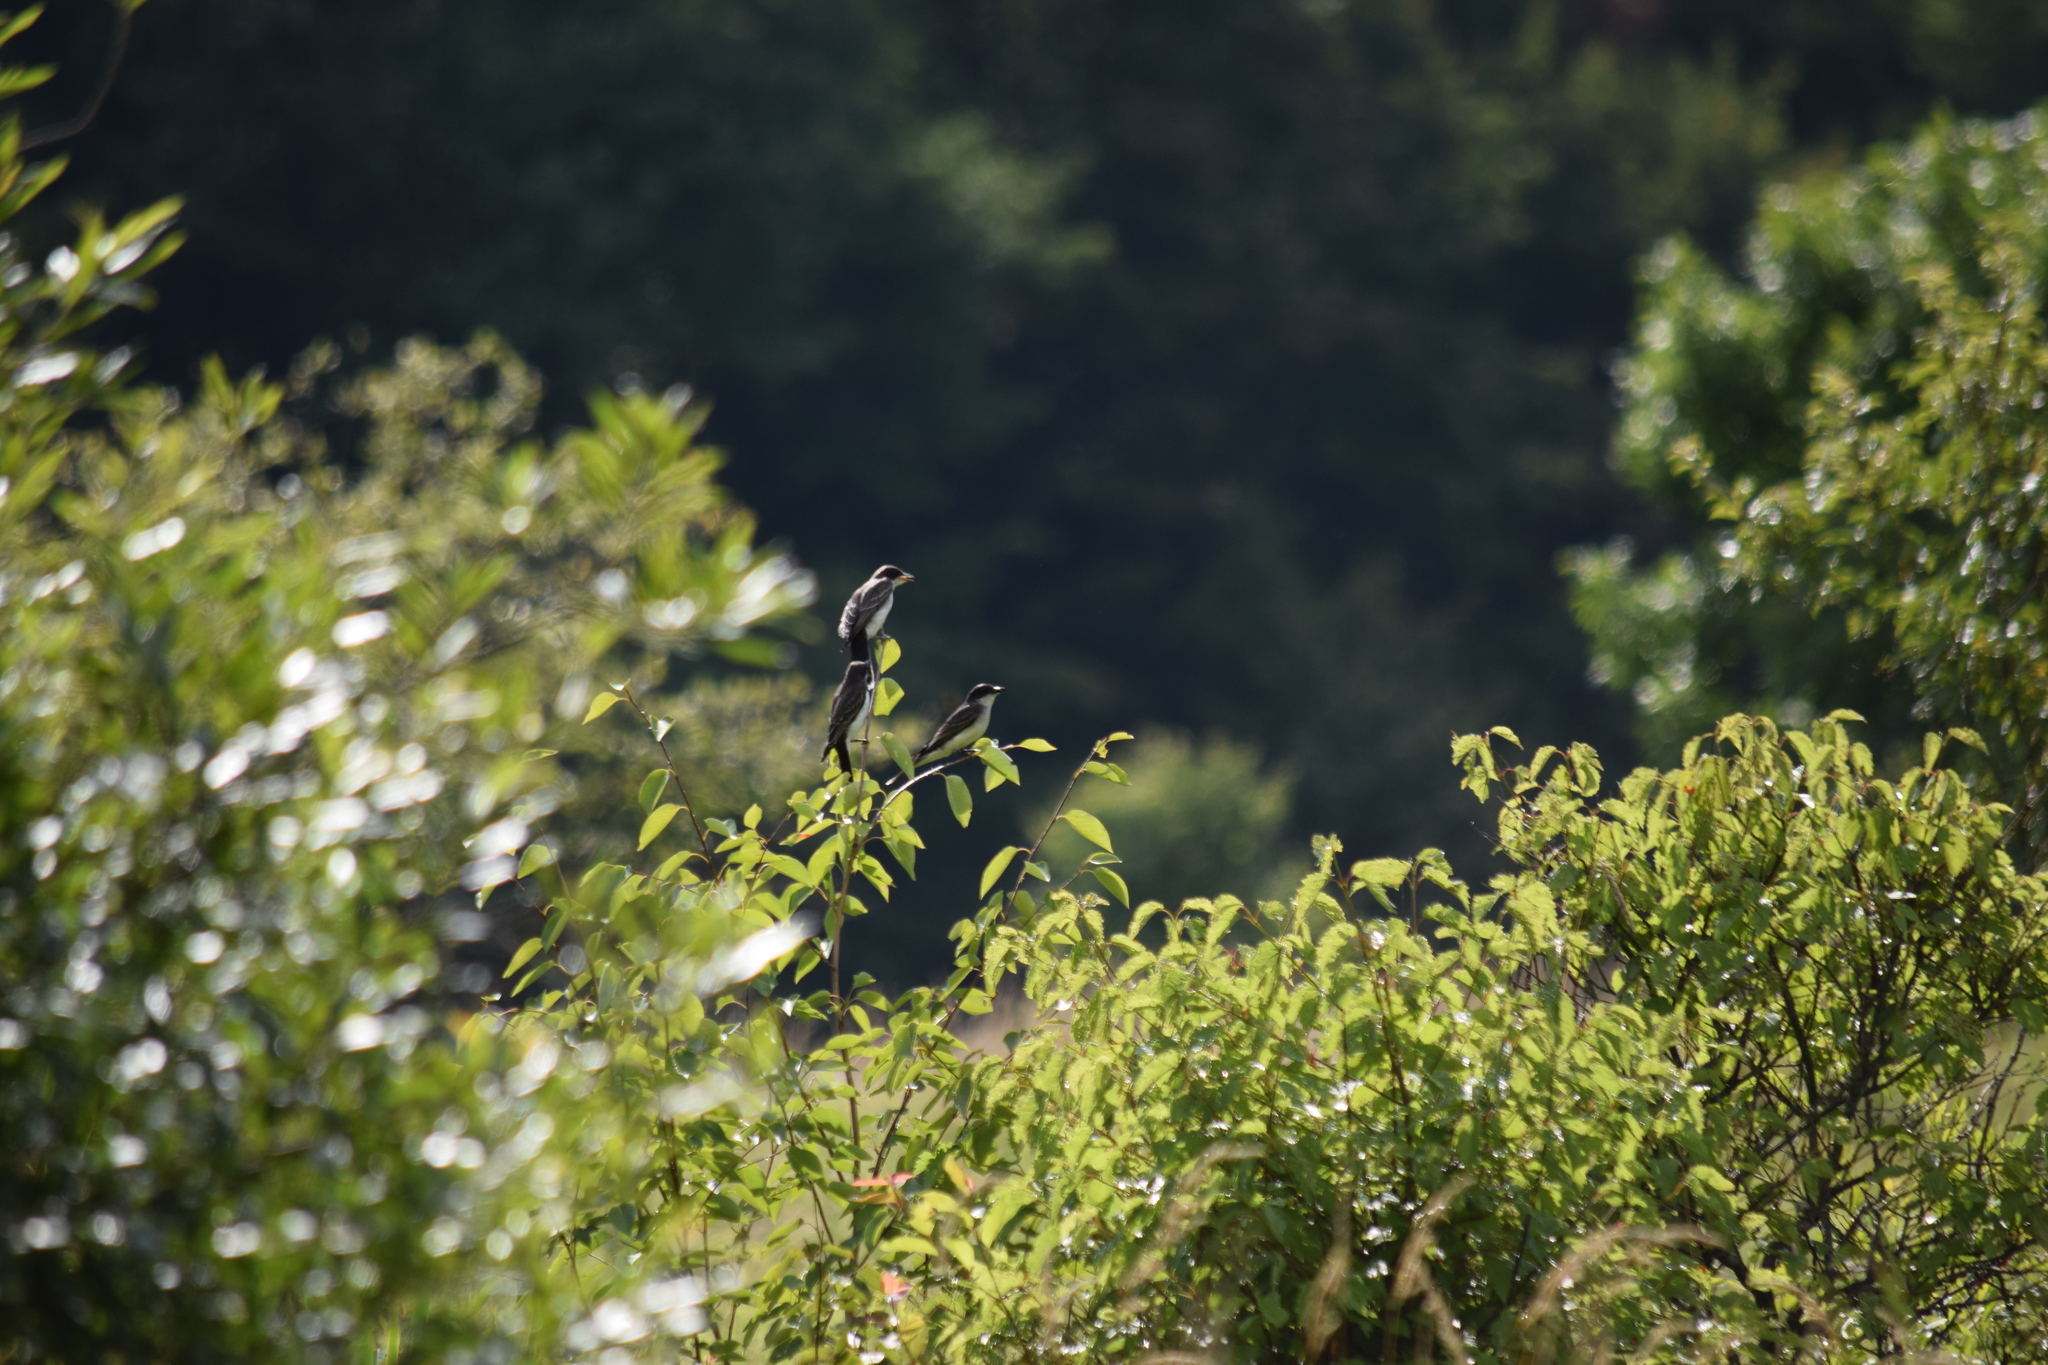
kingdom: Animalia
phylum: Chordata
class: Aves
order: Passeriformes
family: Tyrannidae
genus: Tyrannus
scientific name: Tyrannus tyrannus
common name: Eastern kingbird
